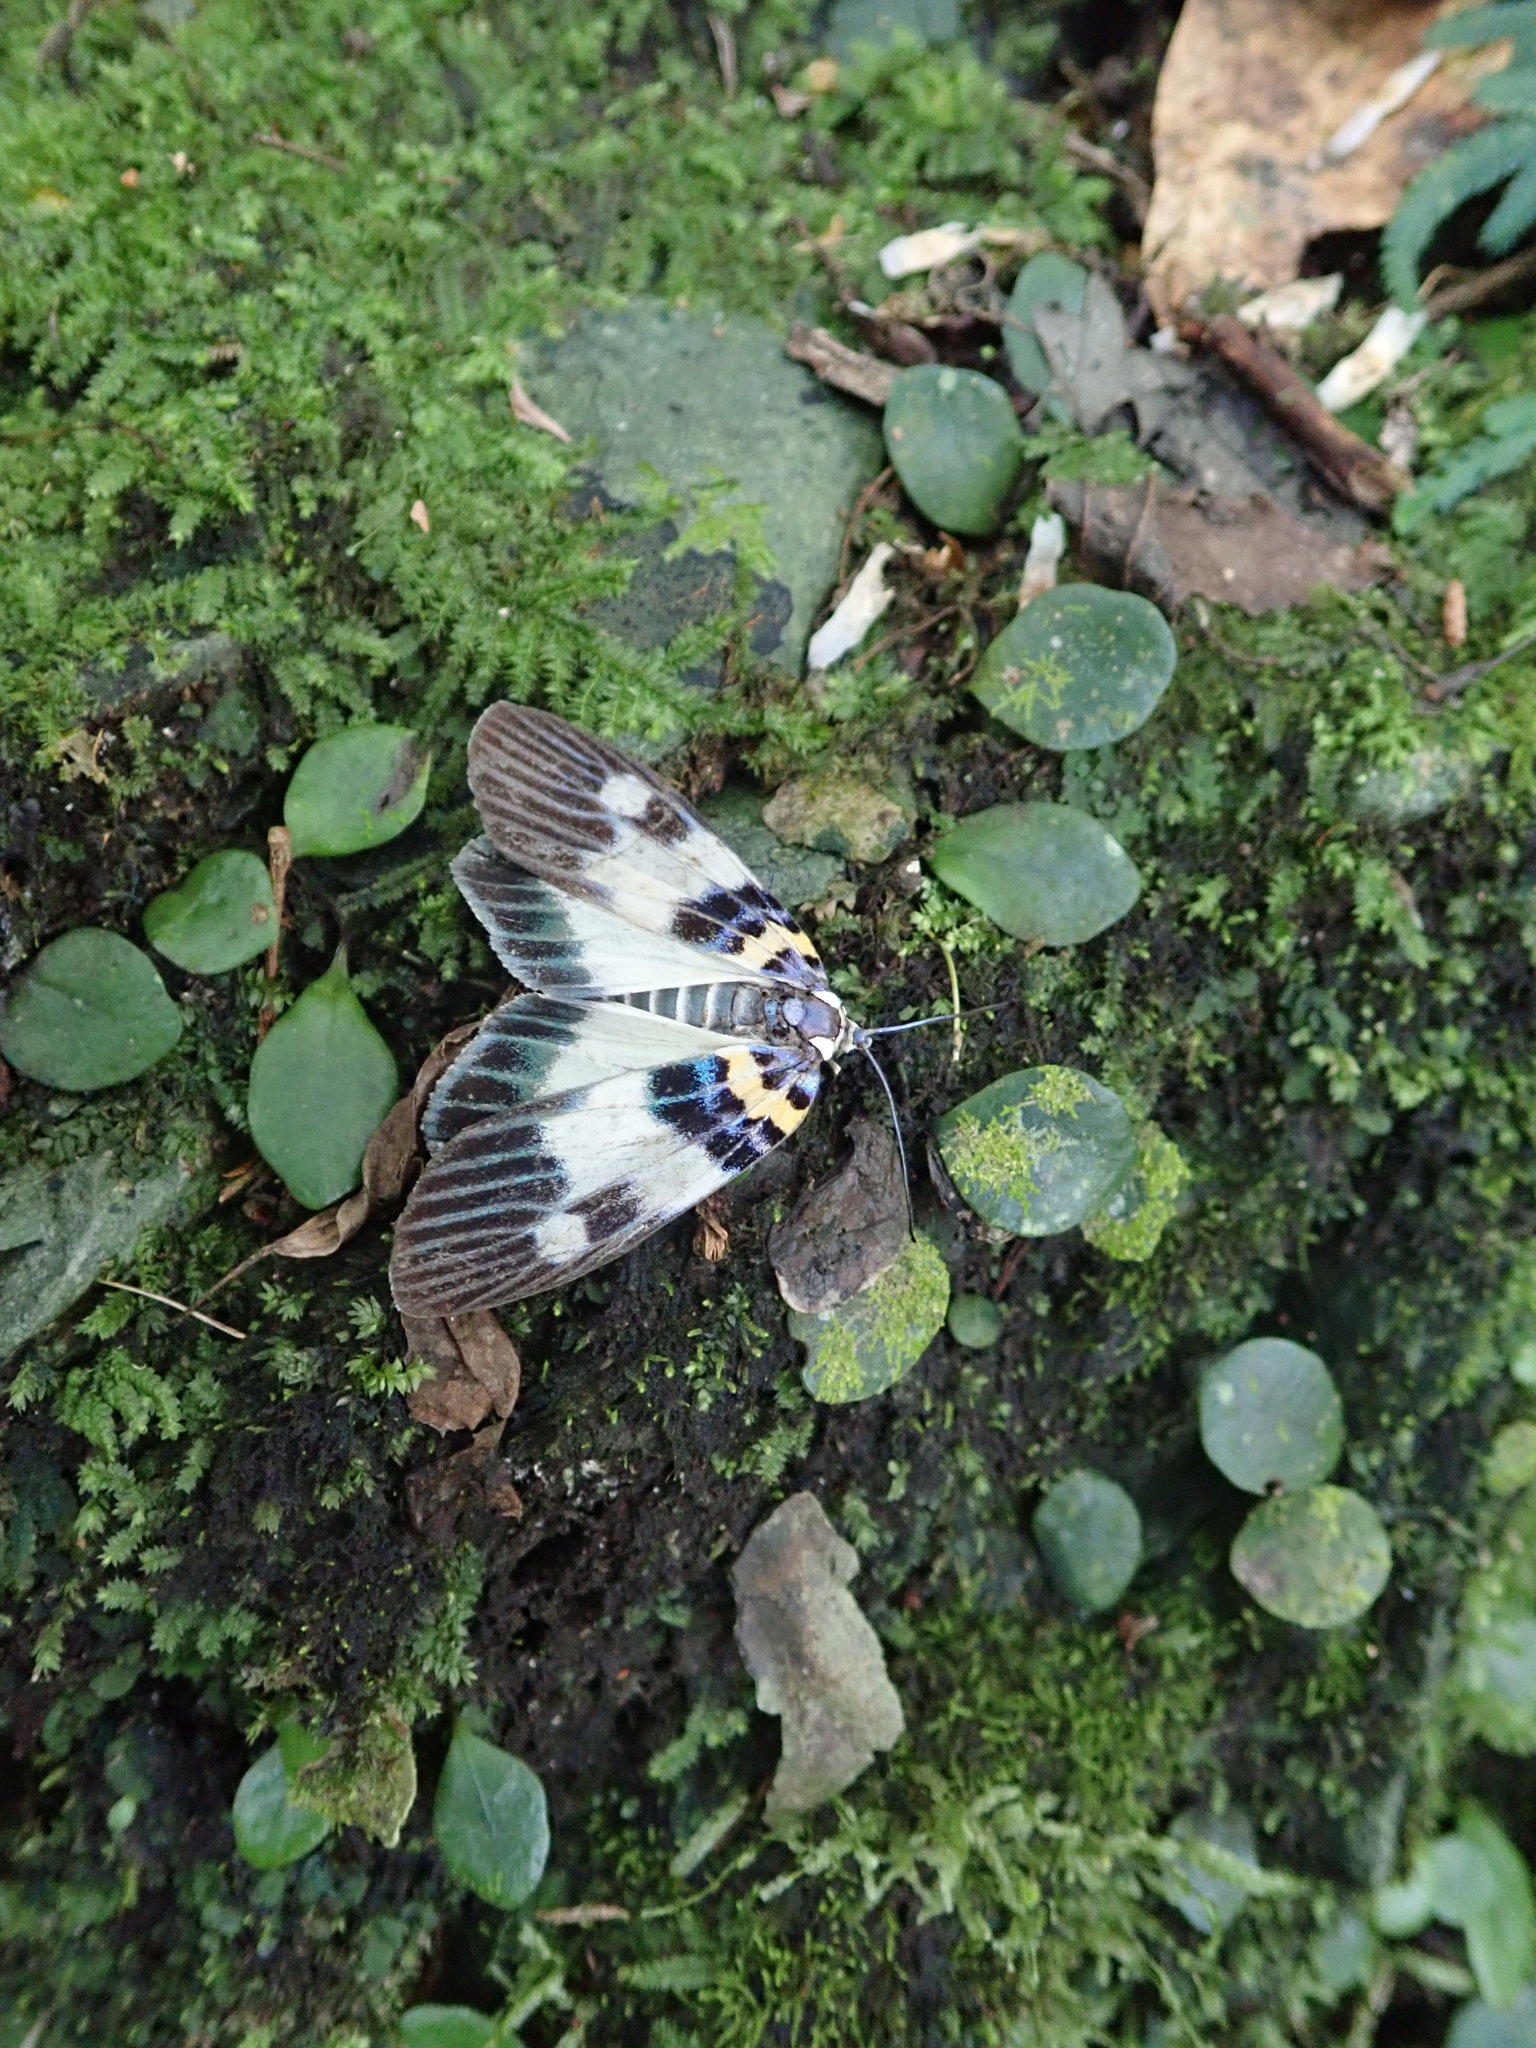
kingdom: Animalia
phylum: Arthropoda
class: Insecta
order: Lepidoptera
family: Zygaenidae
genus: Erasmiphlebohecta
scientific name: Erasmiphlebohecta picturata
